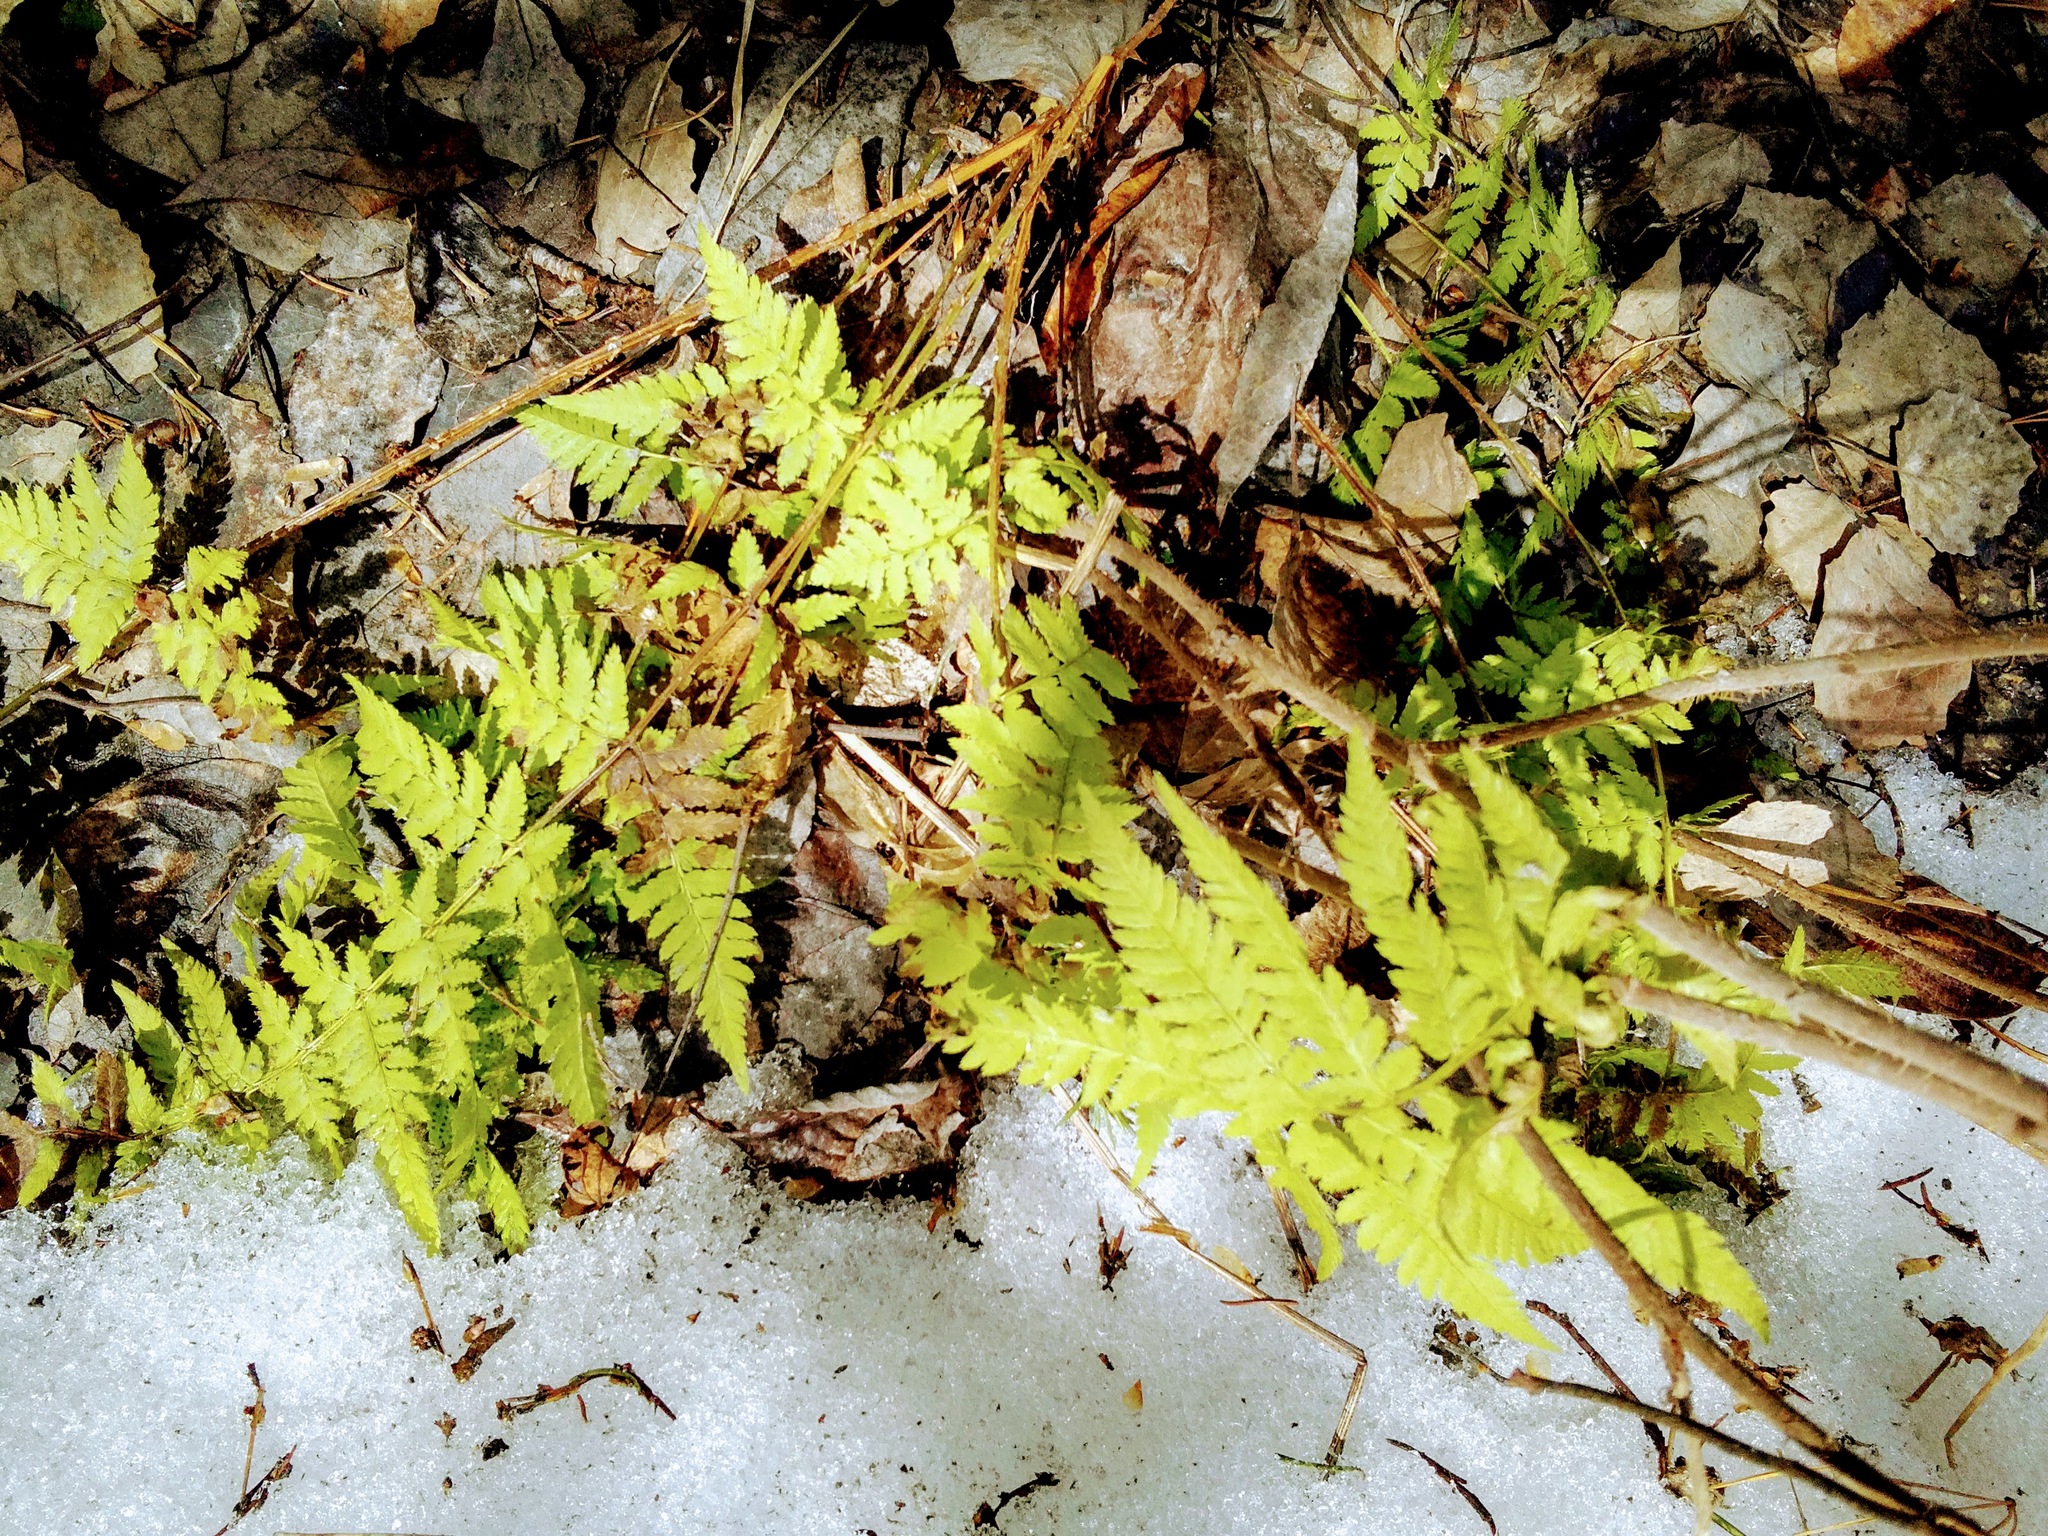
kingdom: Plantae
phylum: Tracheophyta
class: Polypodiopsida
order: Polypodiales
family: Dryopteridaceae
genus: Dryopteris
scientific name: Dryopteris carthusiana
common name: Narrow buckler-fern
